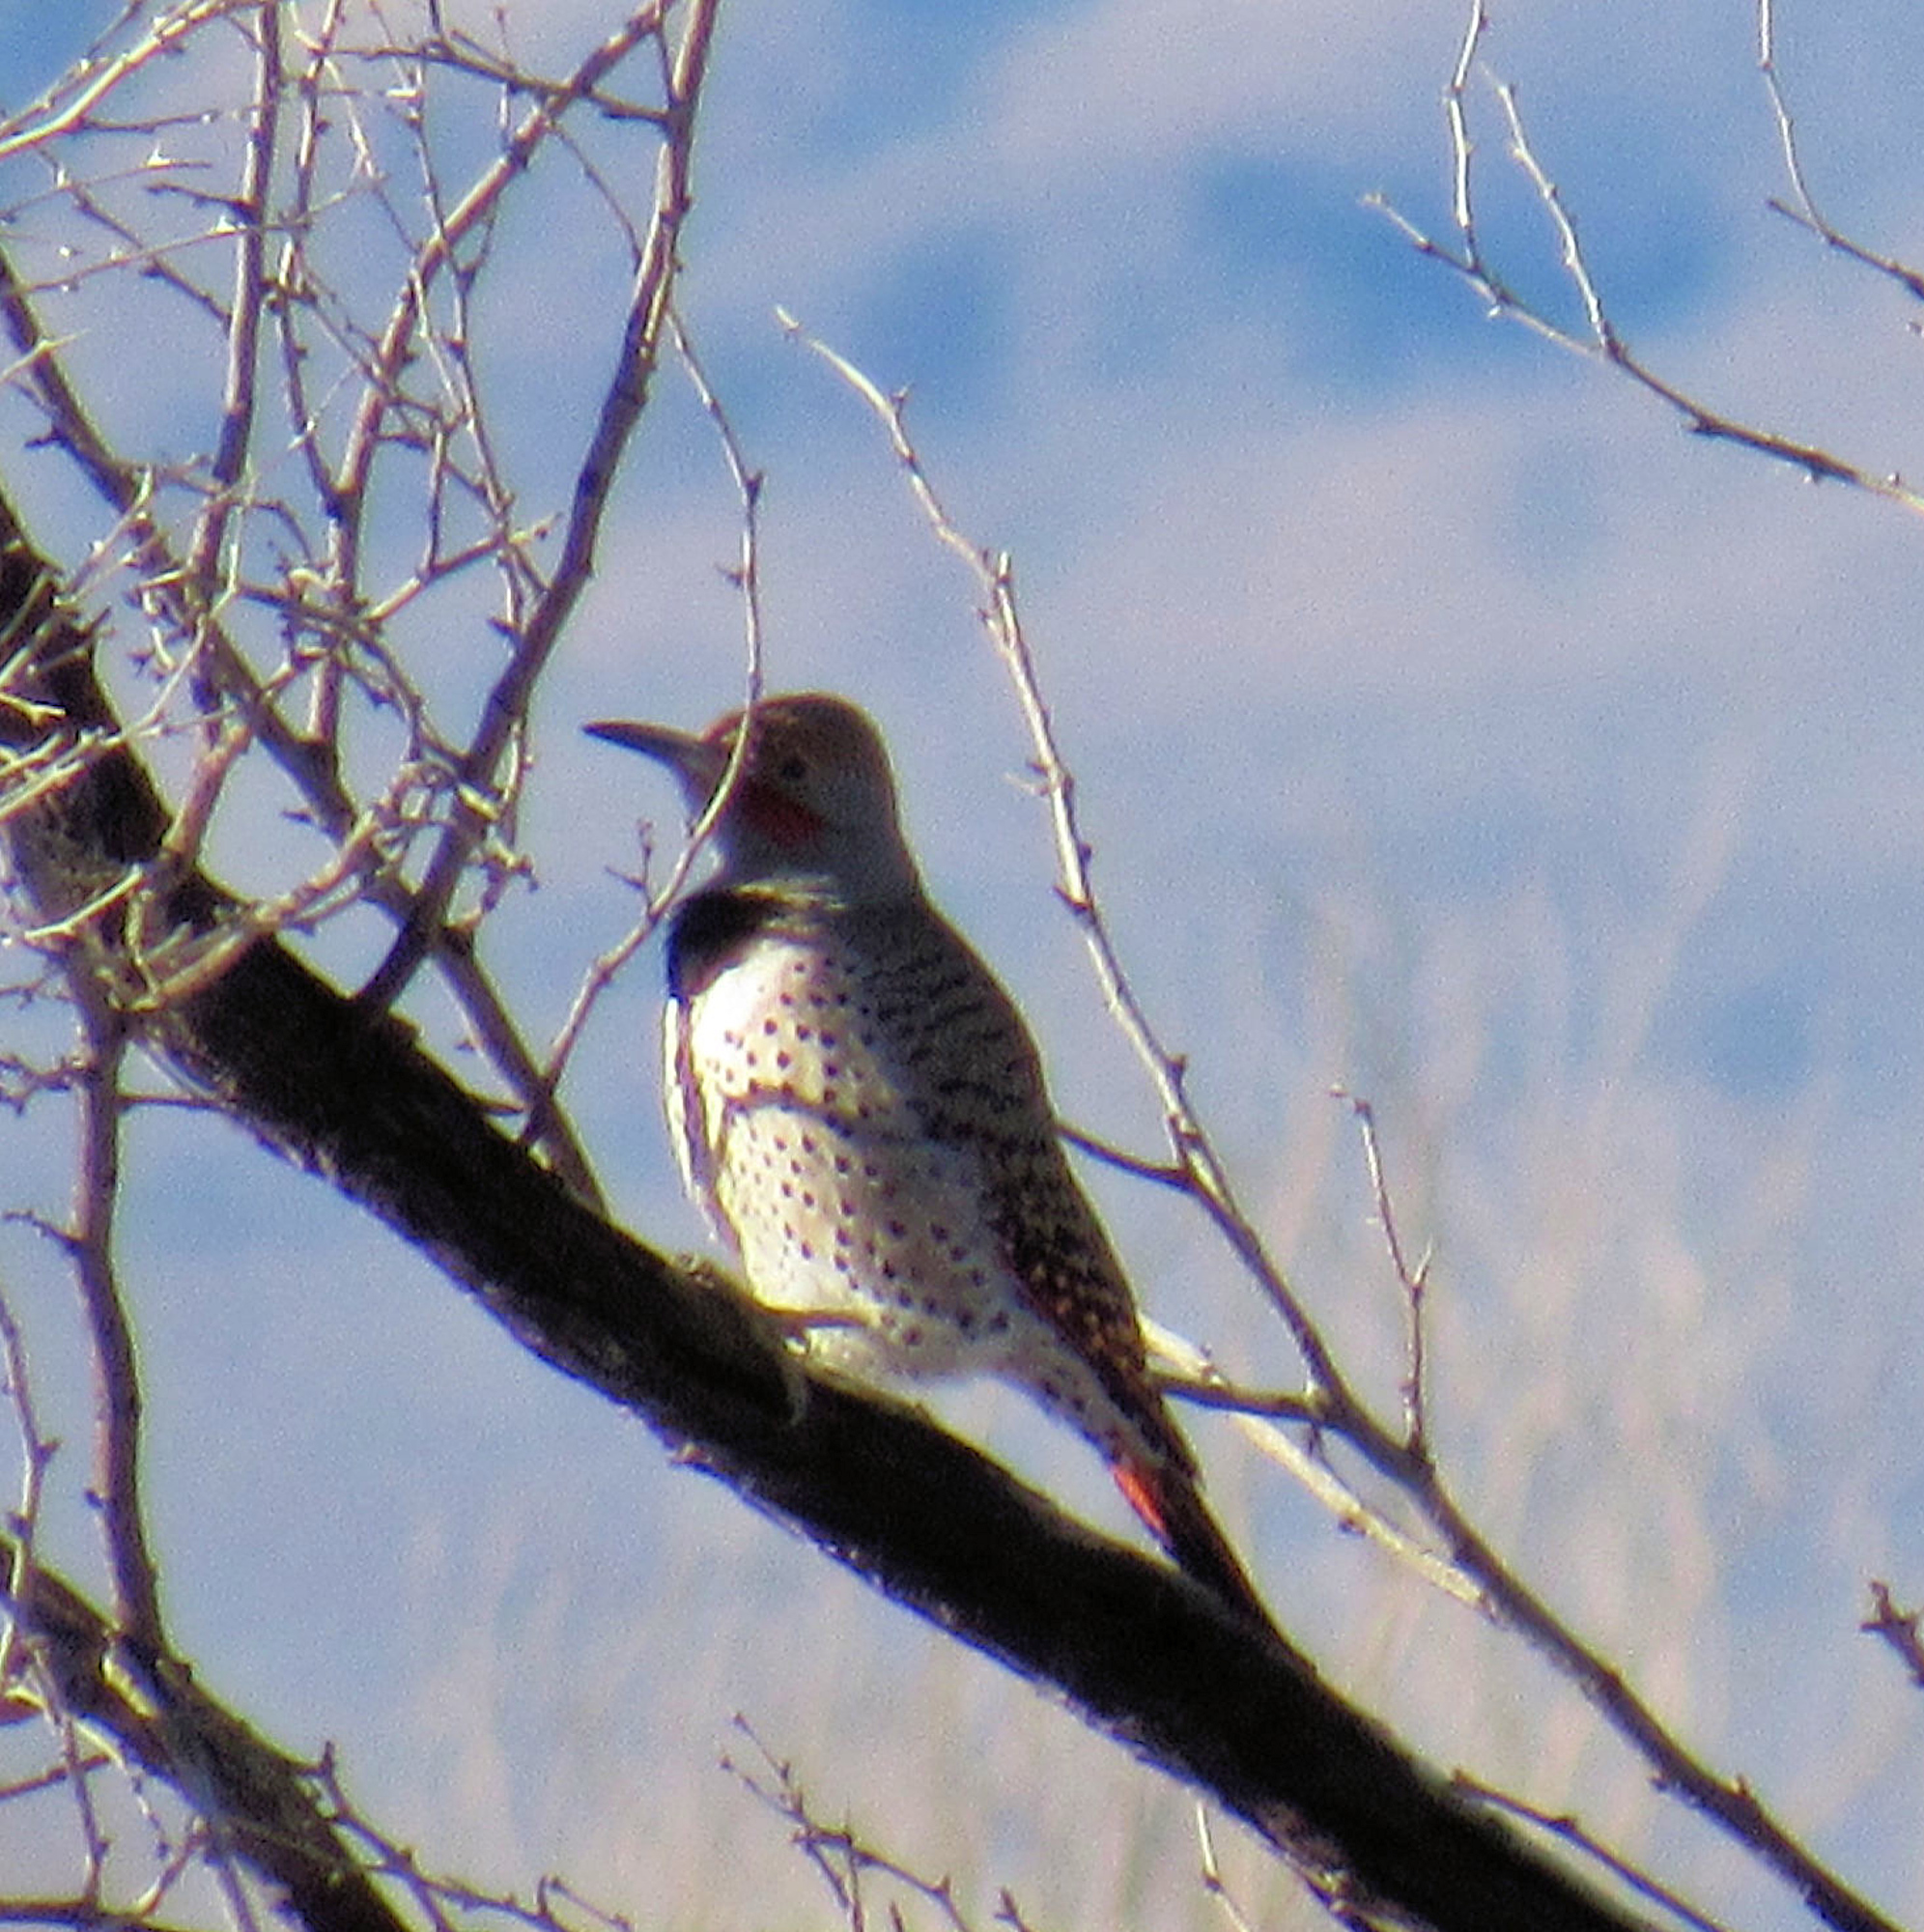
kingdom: Animalia
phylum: Chordata
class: Aves
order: Piciformes
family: Picidae
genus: Colaptes
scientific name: Colaptes auratus
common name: Northern flicker
